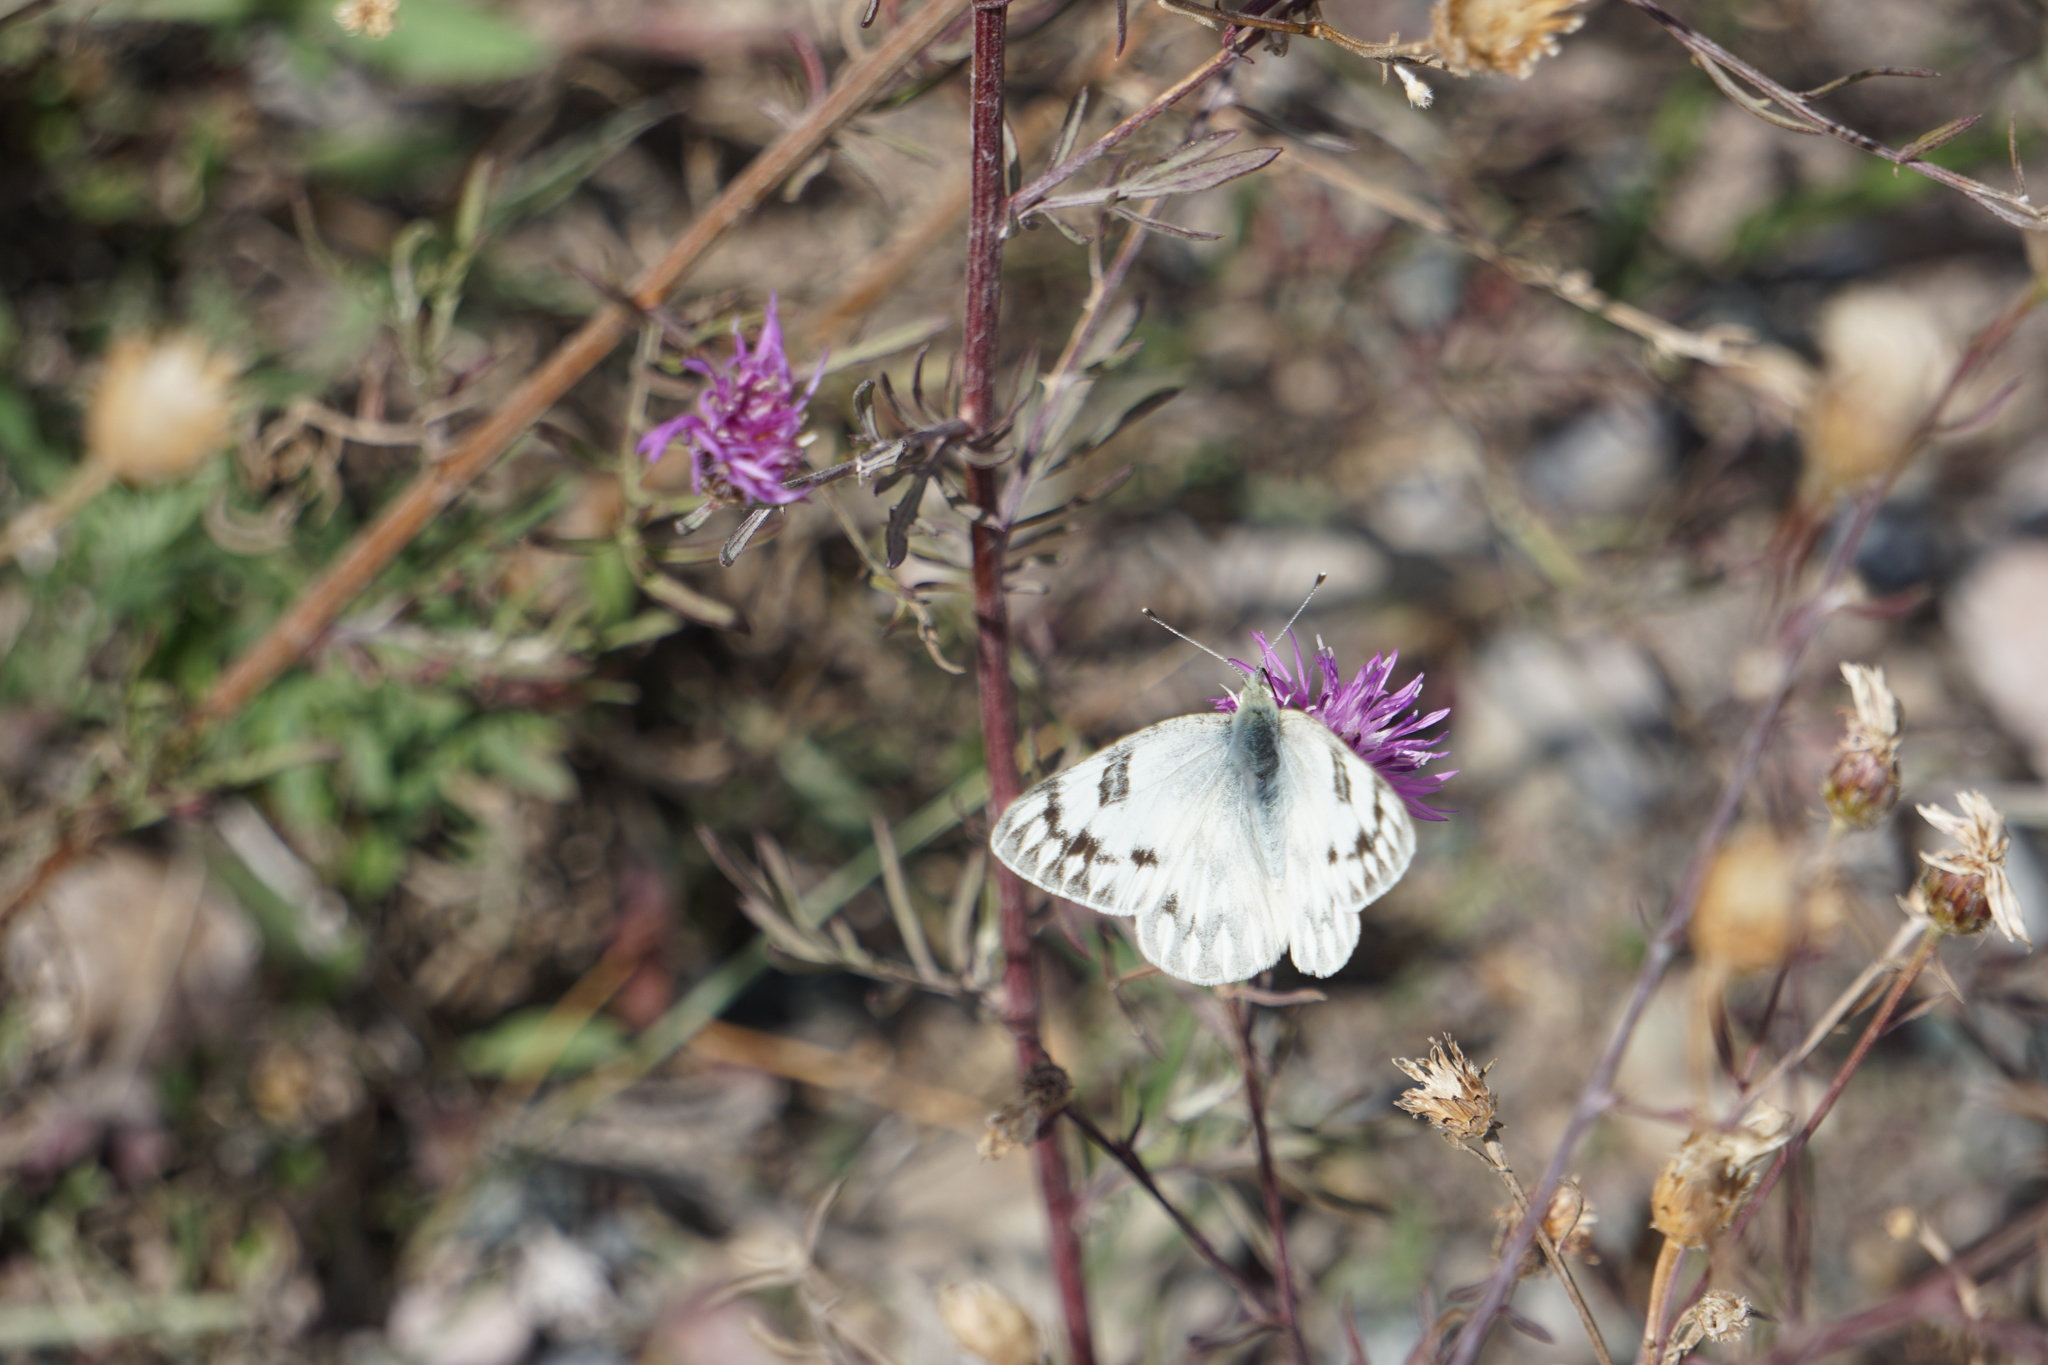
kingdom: Animalia
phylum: Arthropoda
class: Insecta
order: Lepidoptera
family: Pieridae
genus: Pontia
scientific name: Pontia occidentalis
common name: Western white
